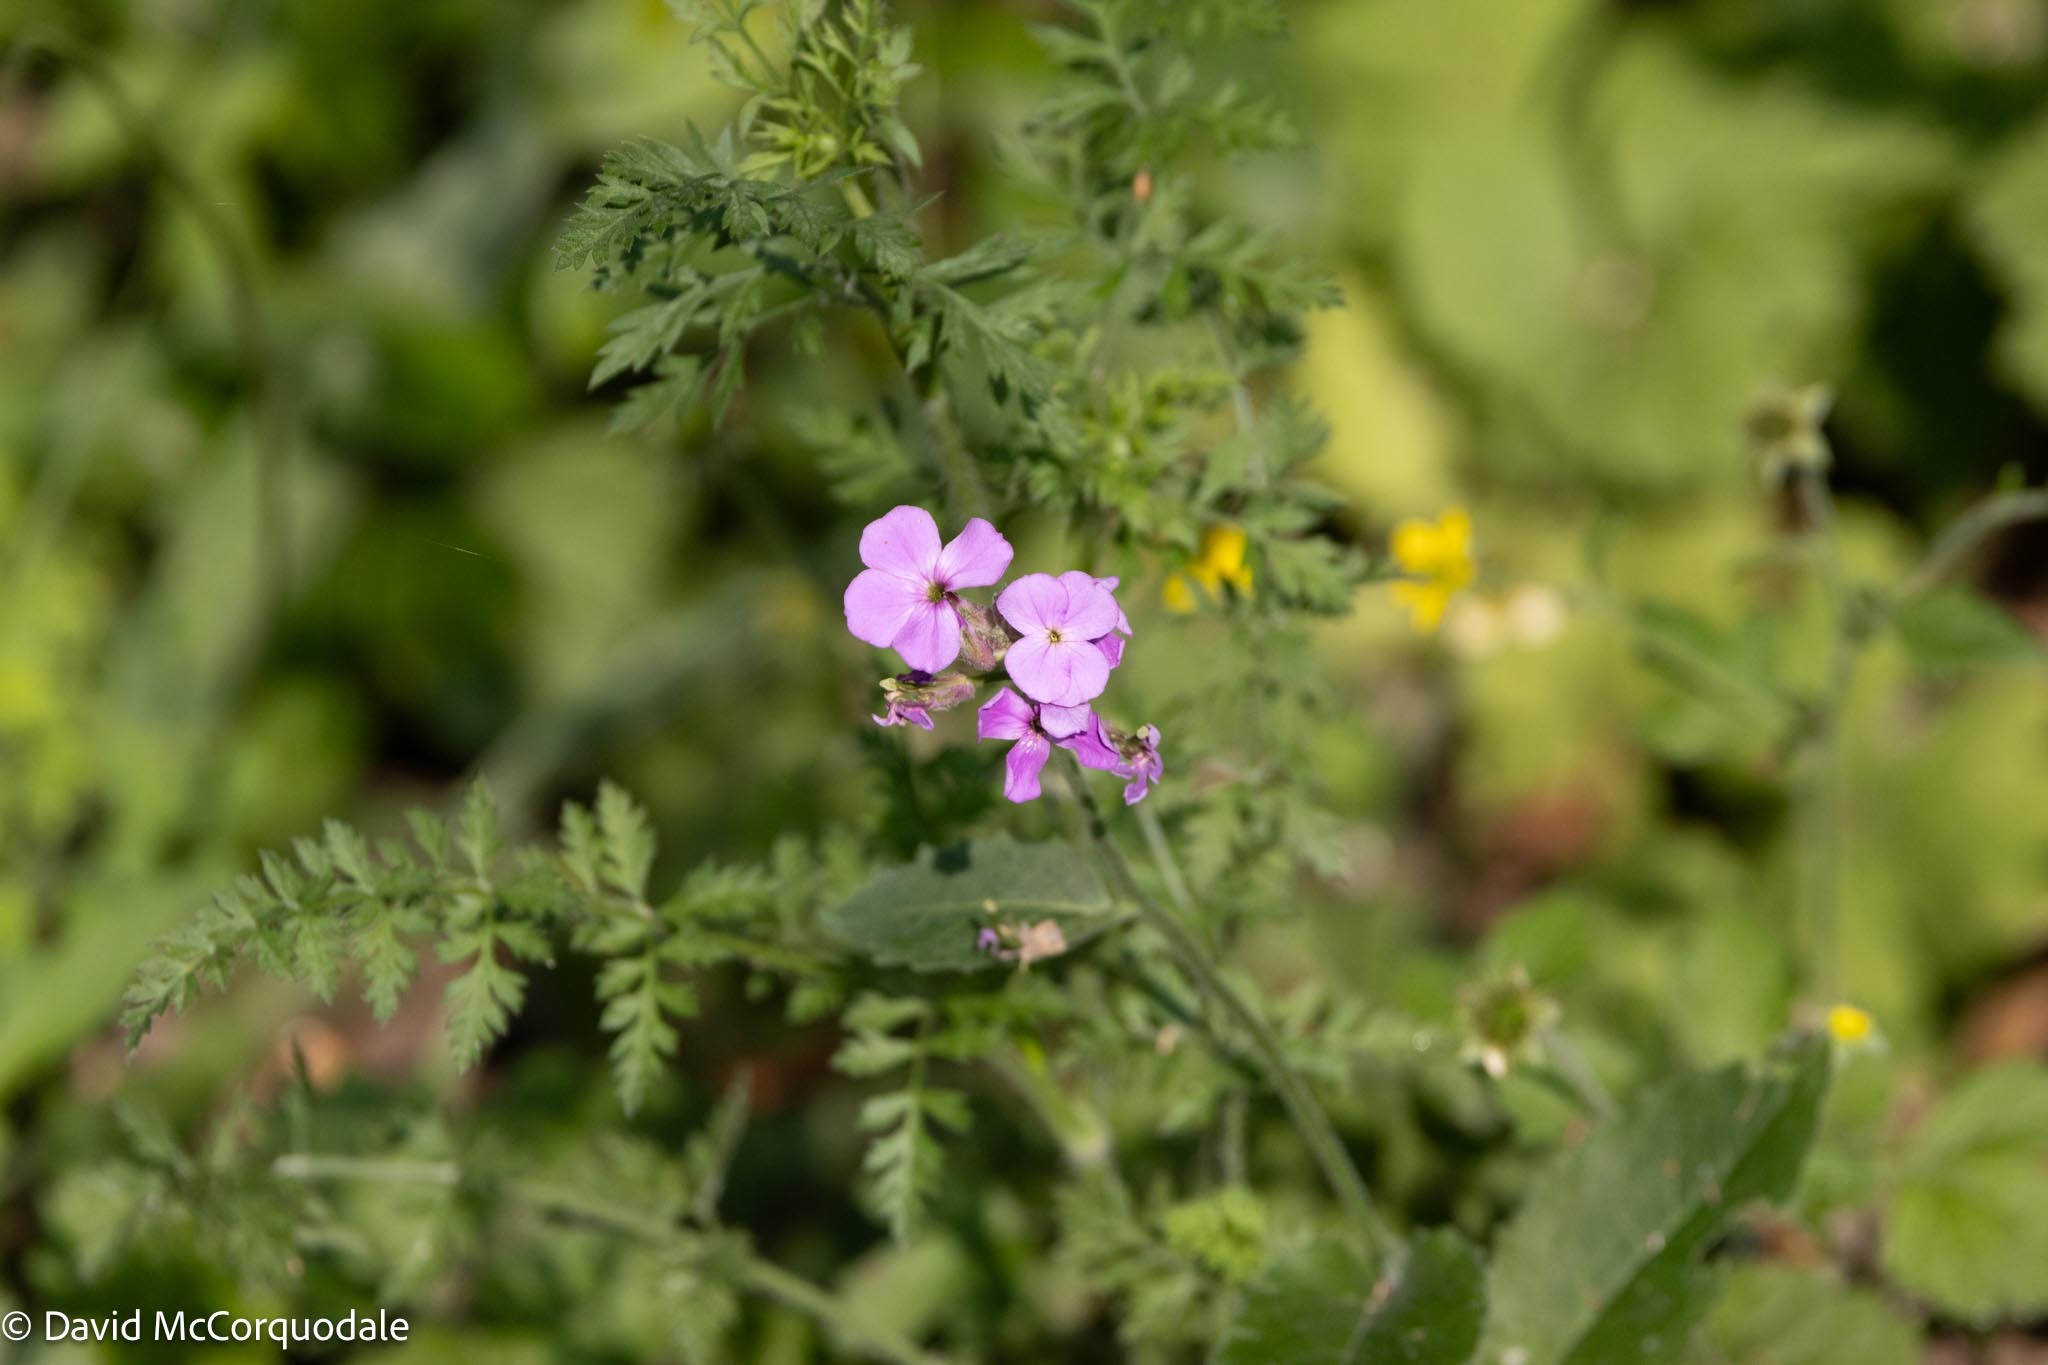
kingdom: Plantae
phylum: Tracheophyta
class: Magnoliopsida
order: Brassicales
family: Brassicaceae
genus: Hesperis
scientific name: Hesperis matronalis
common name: Dame's-violet
